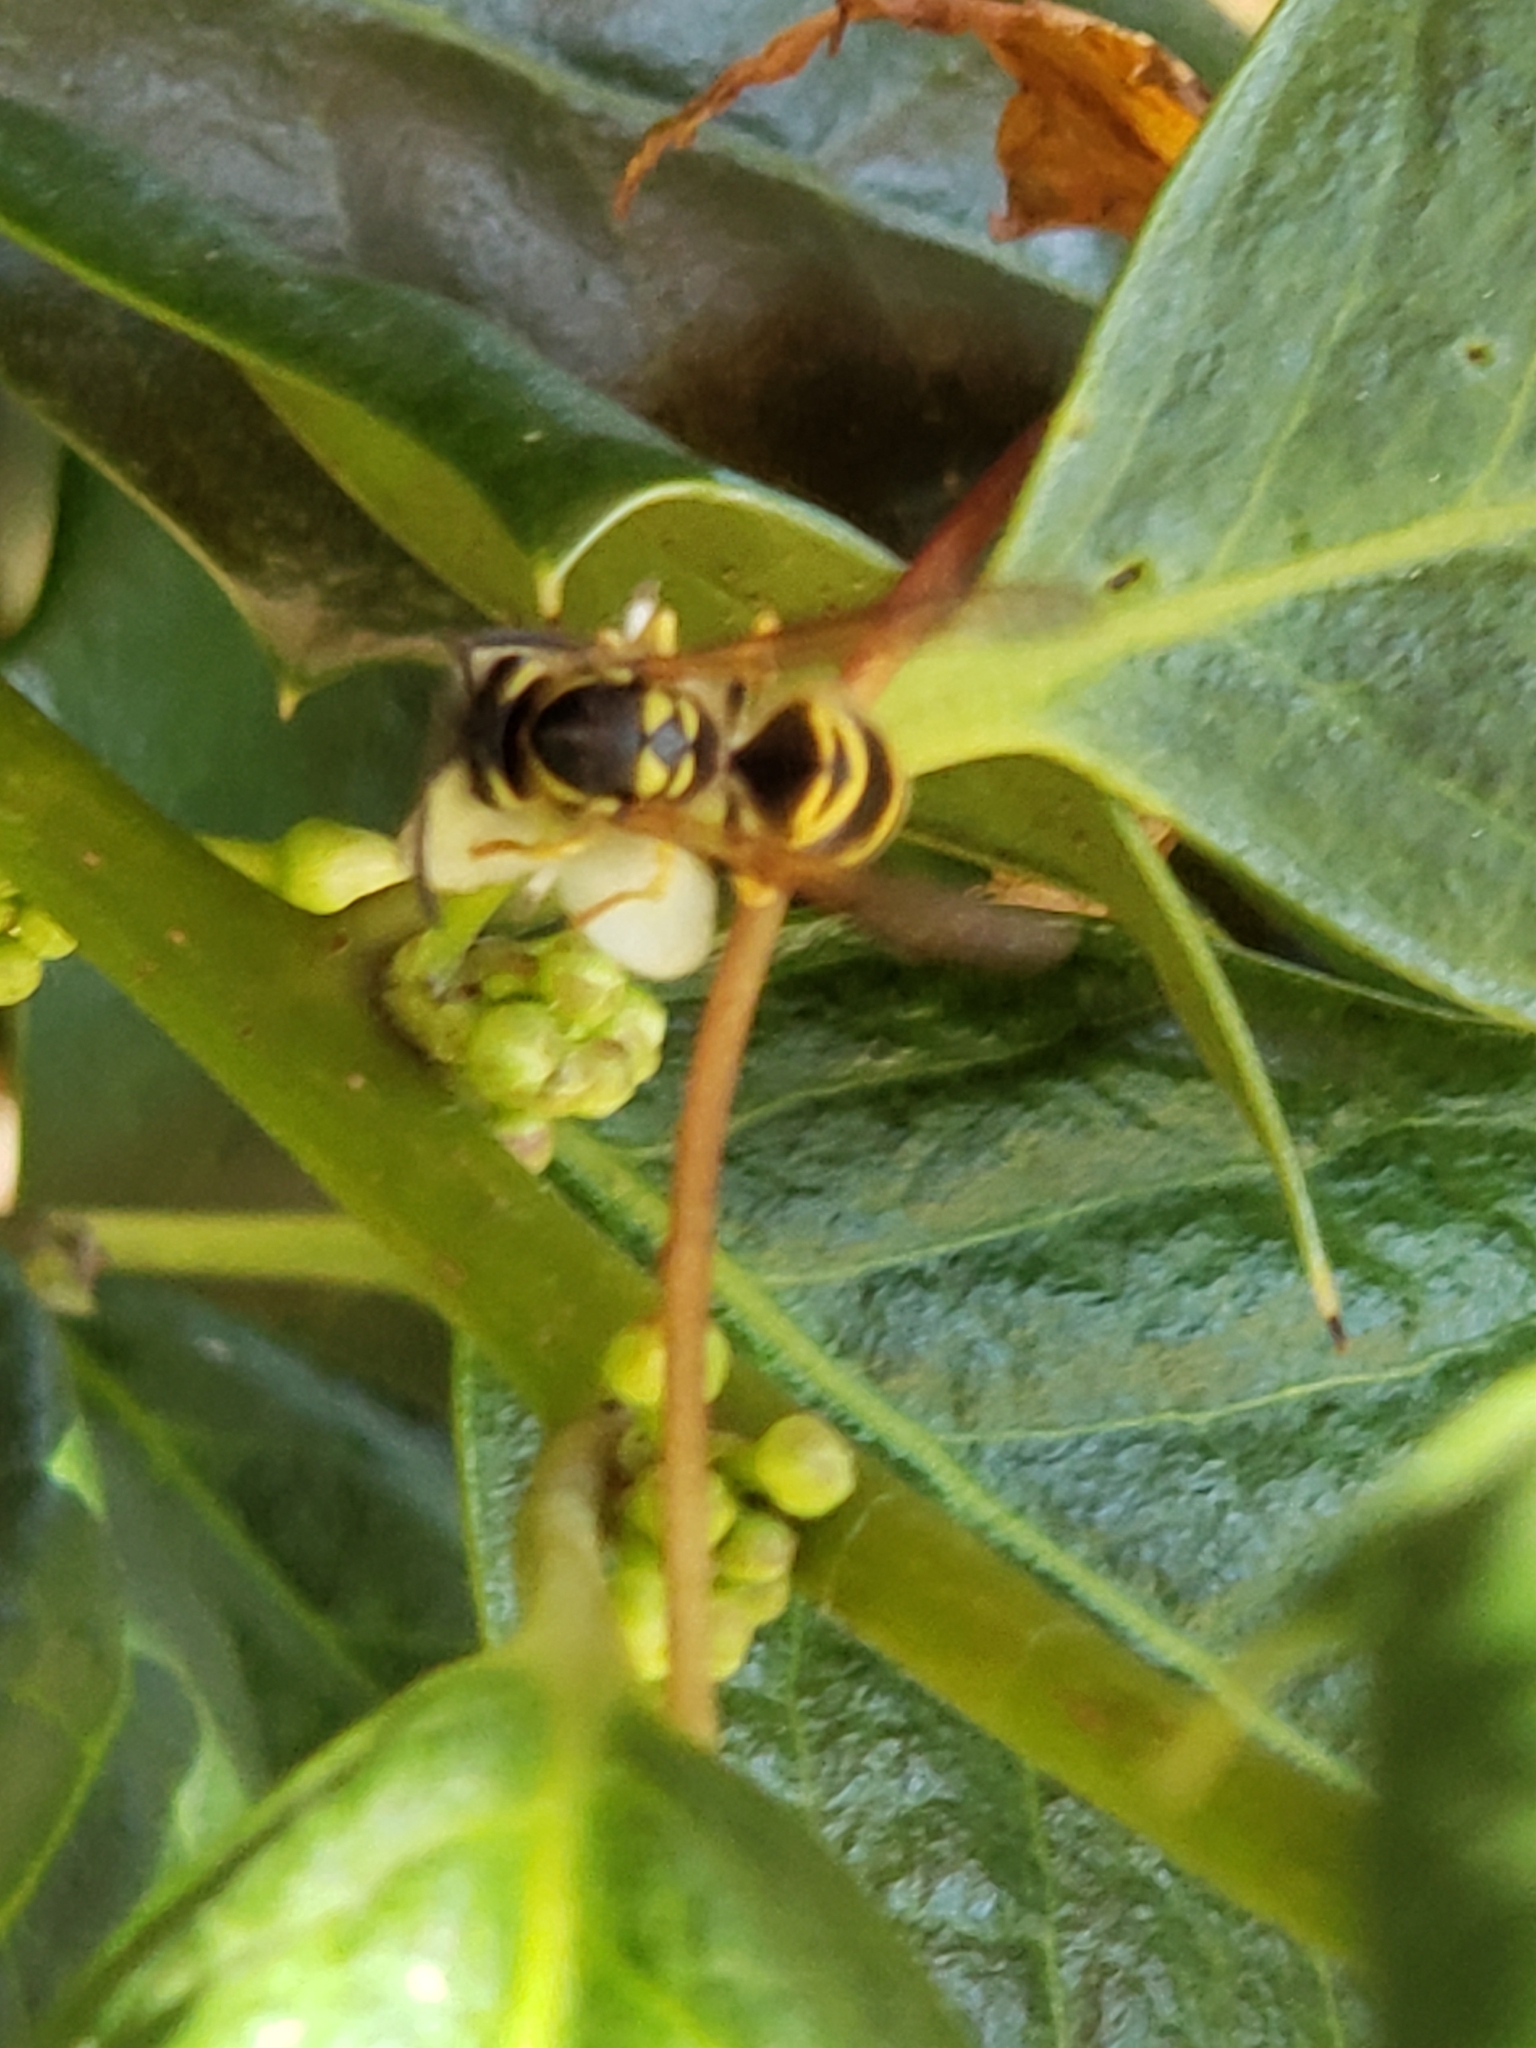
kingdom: Animalia
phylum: Arthropoda
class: Insecta
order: Hymenoptera
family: Vespidae
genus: Vespula
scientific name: Vespula maculifrons
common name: Eastern yellowjacket
